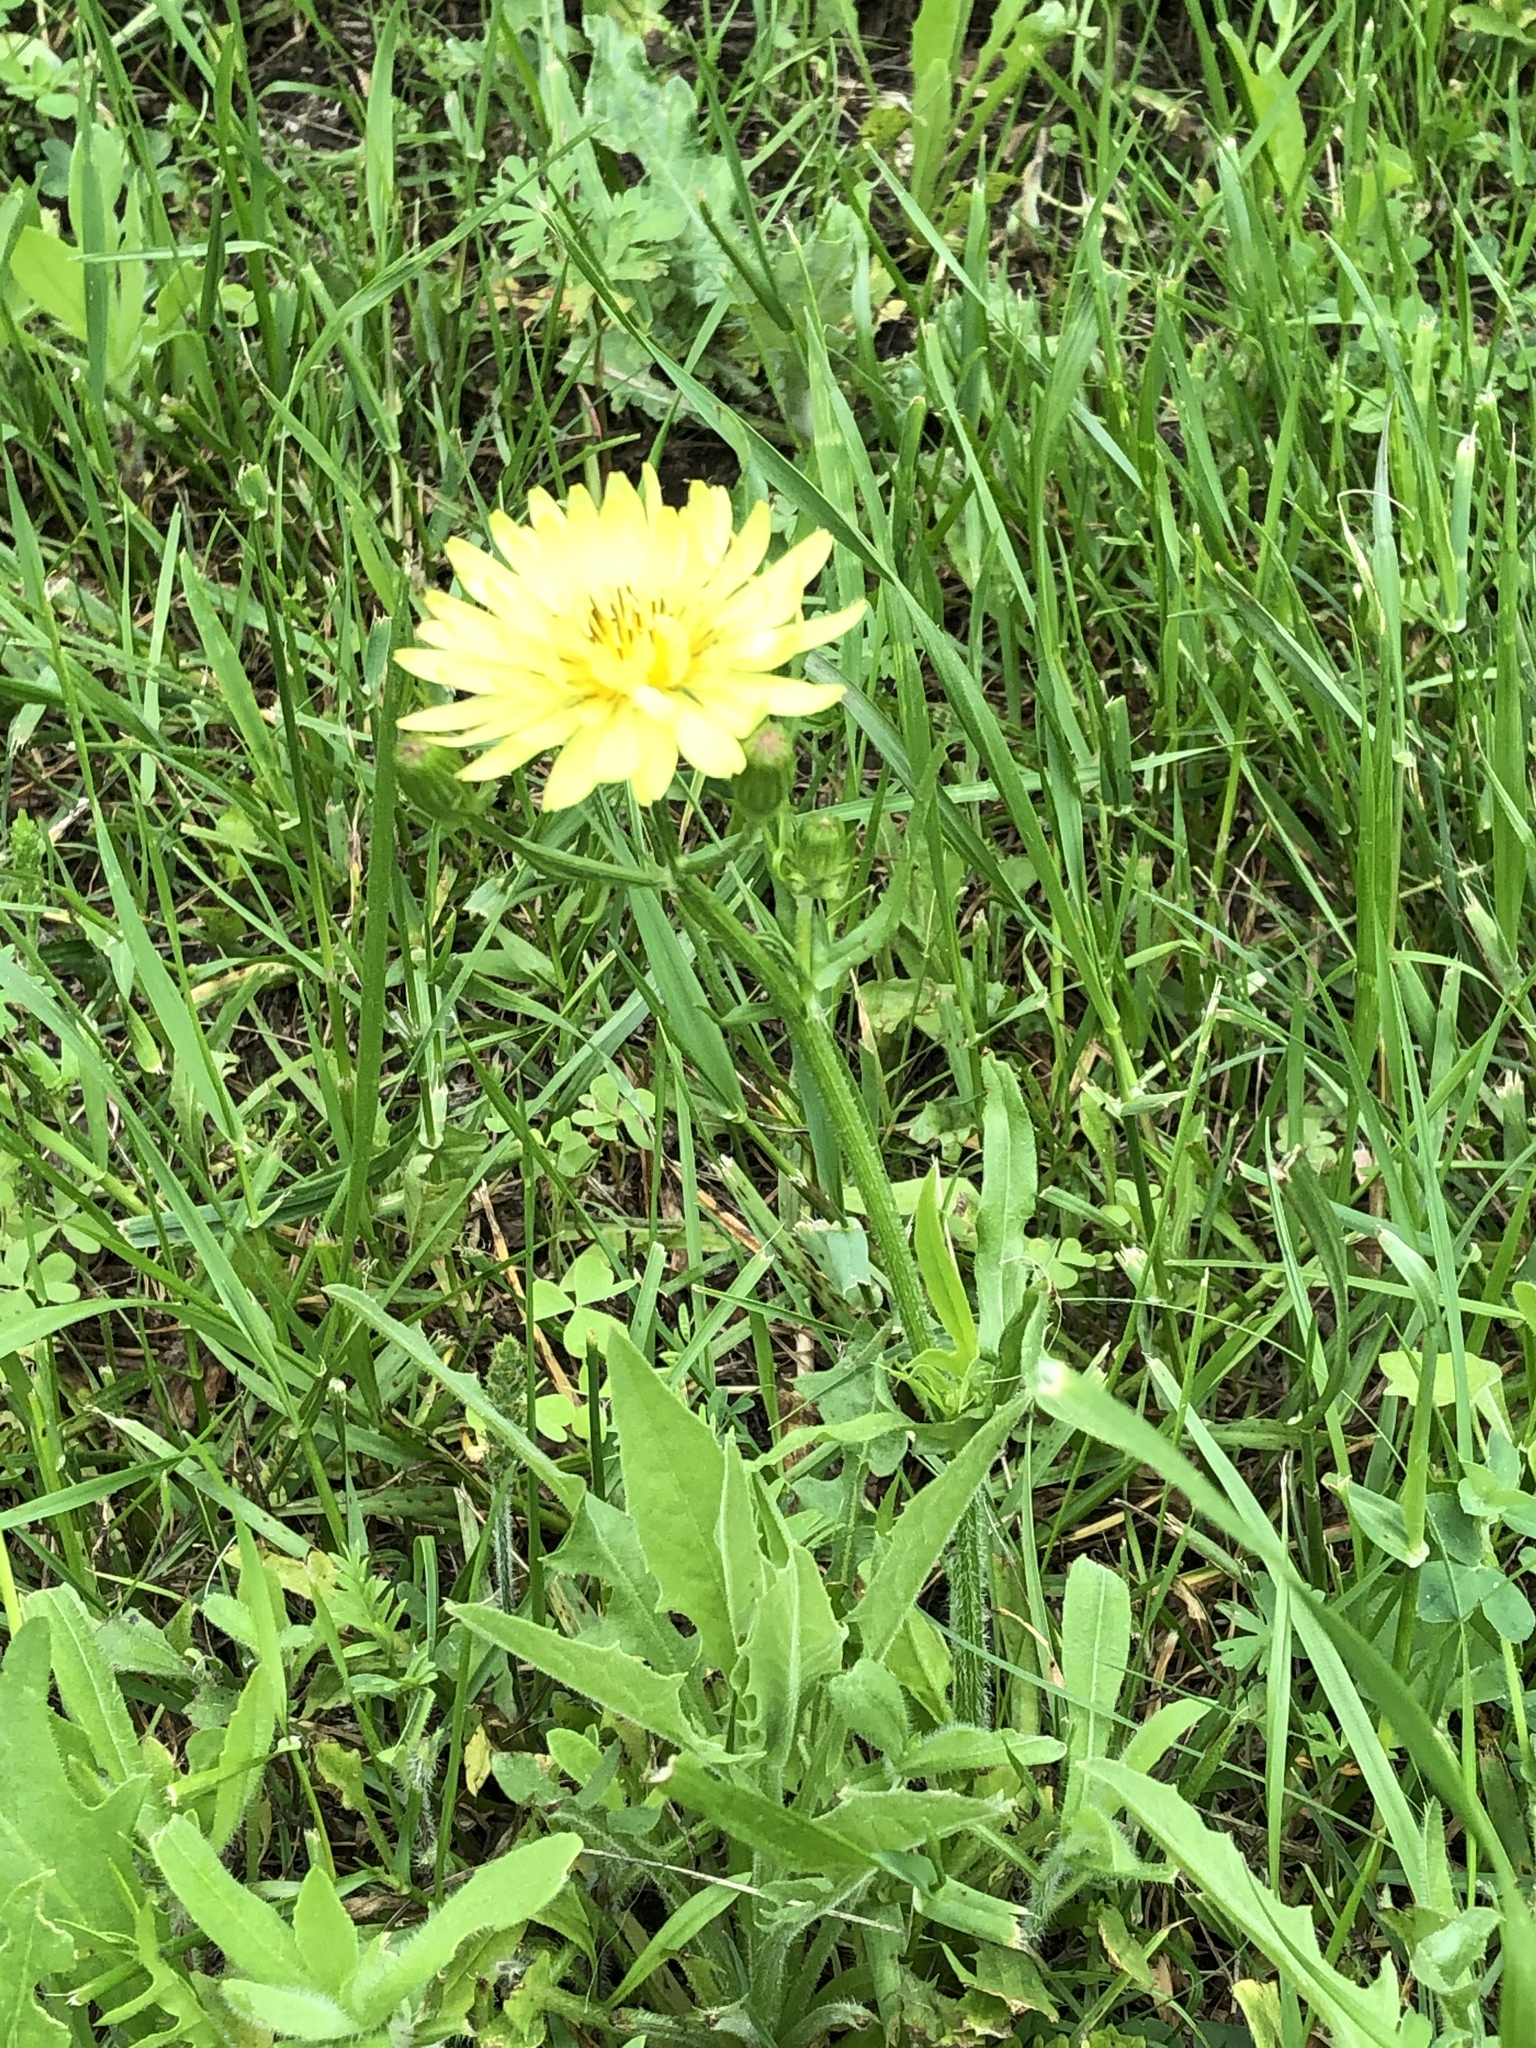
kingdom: Plantae
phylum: Tracheophyta
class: Magnoliopsida
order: Asterales
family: Asteraceae
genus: Pyrrhopappus
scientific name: Pyrrhopappus pauciflorus
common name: Texas false dandelion
